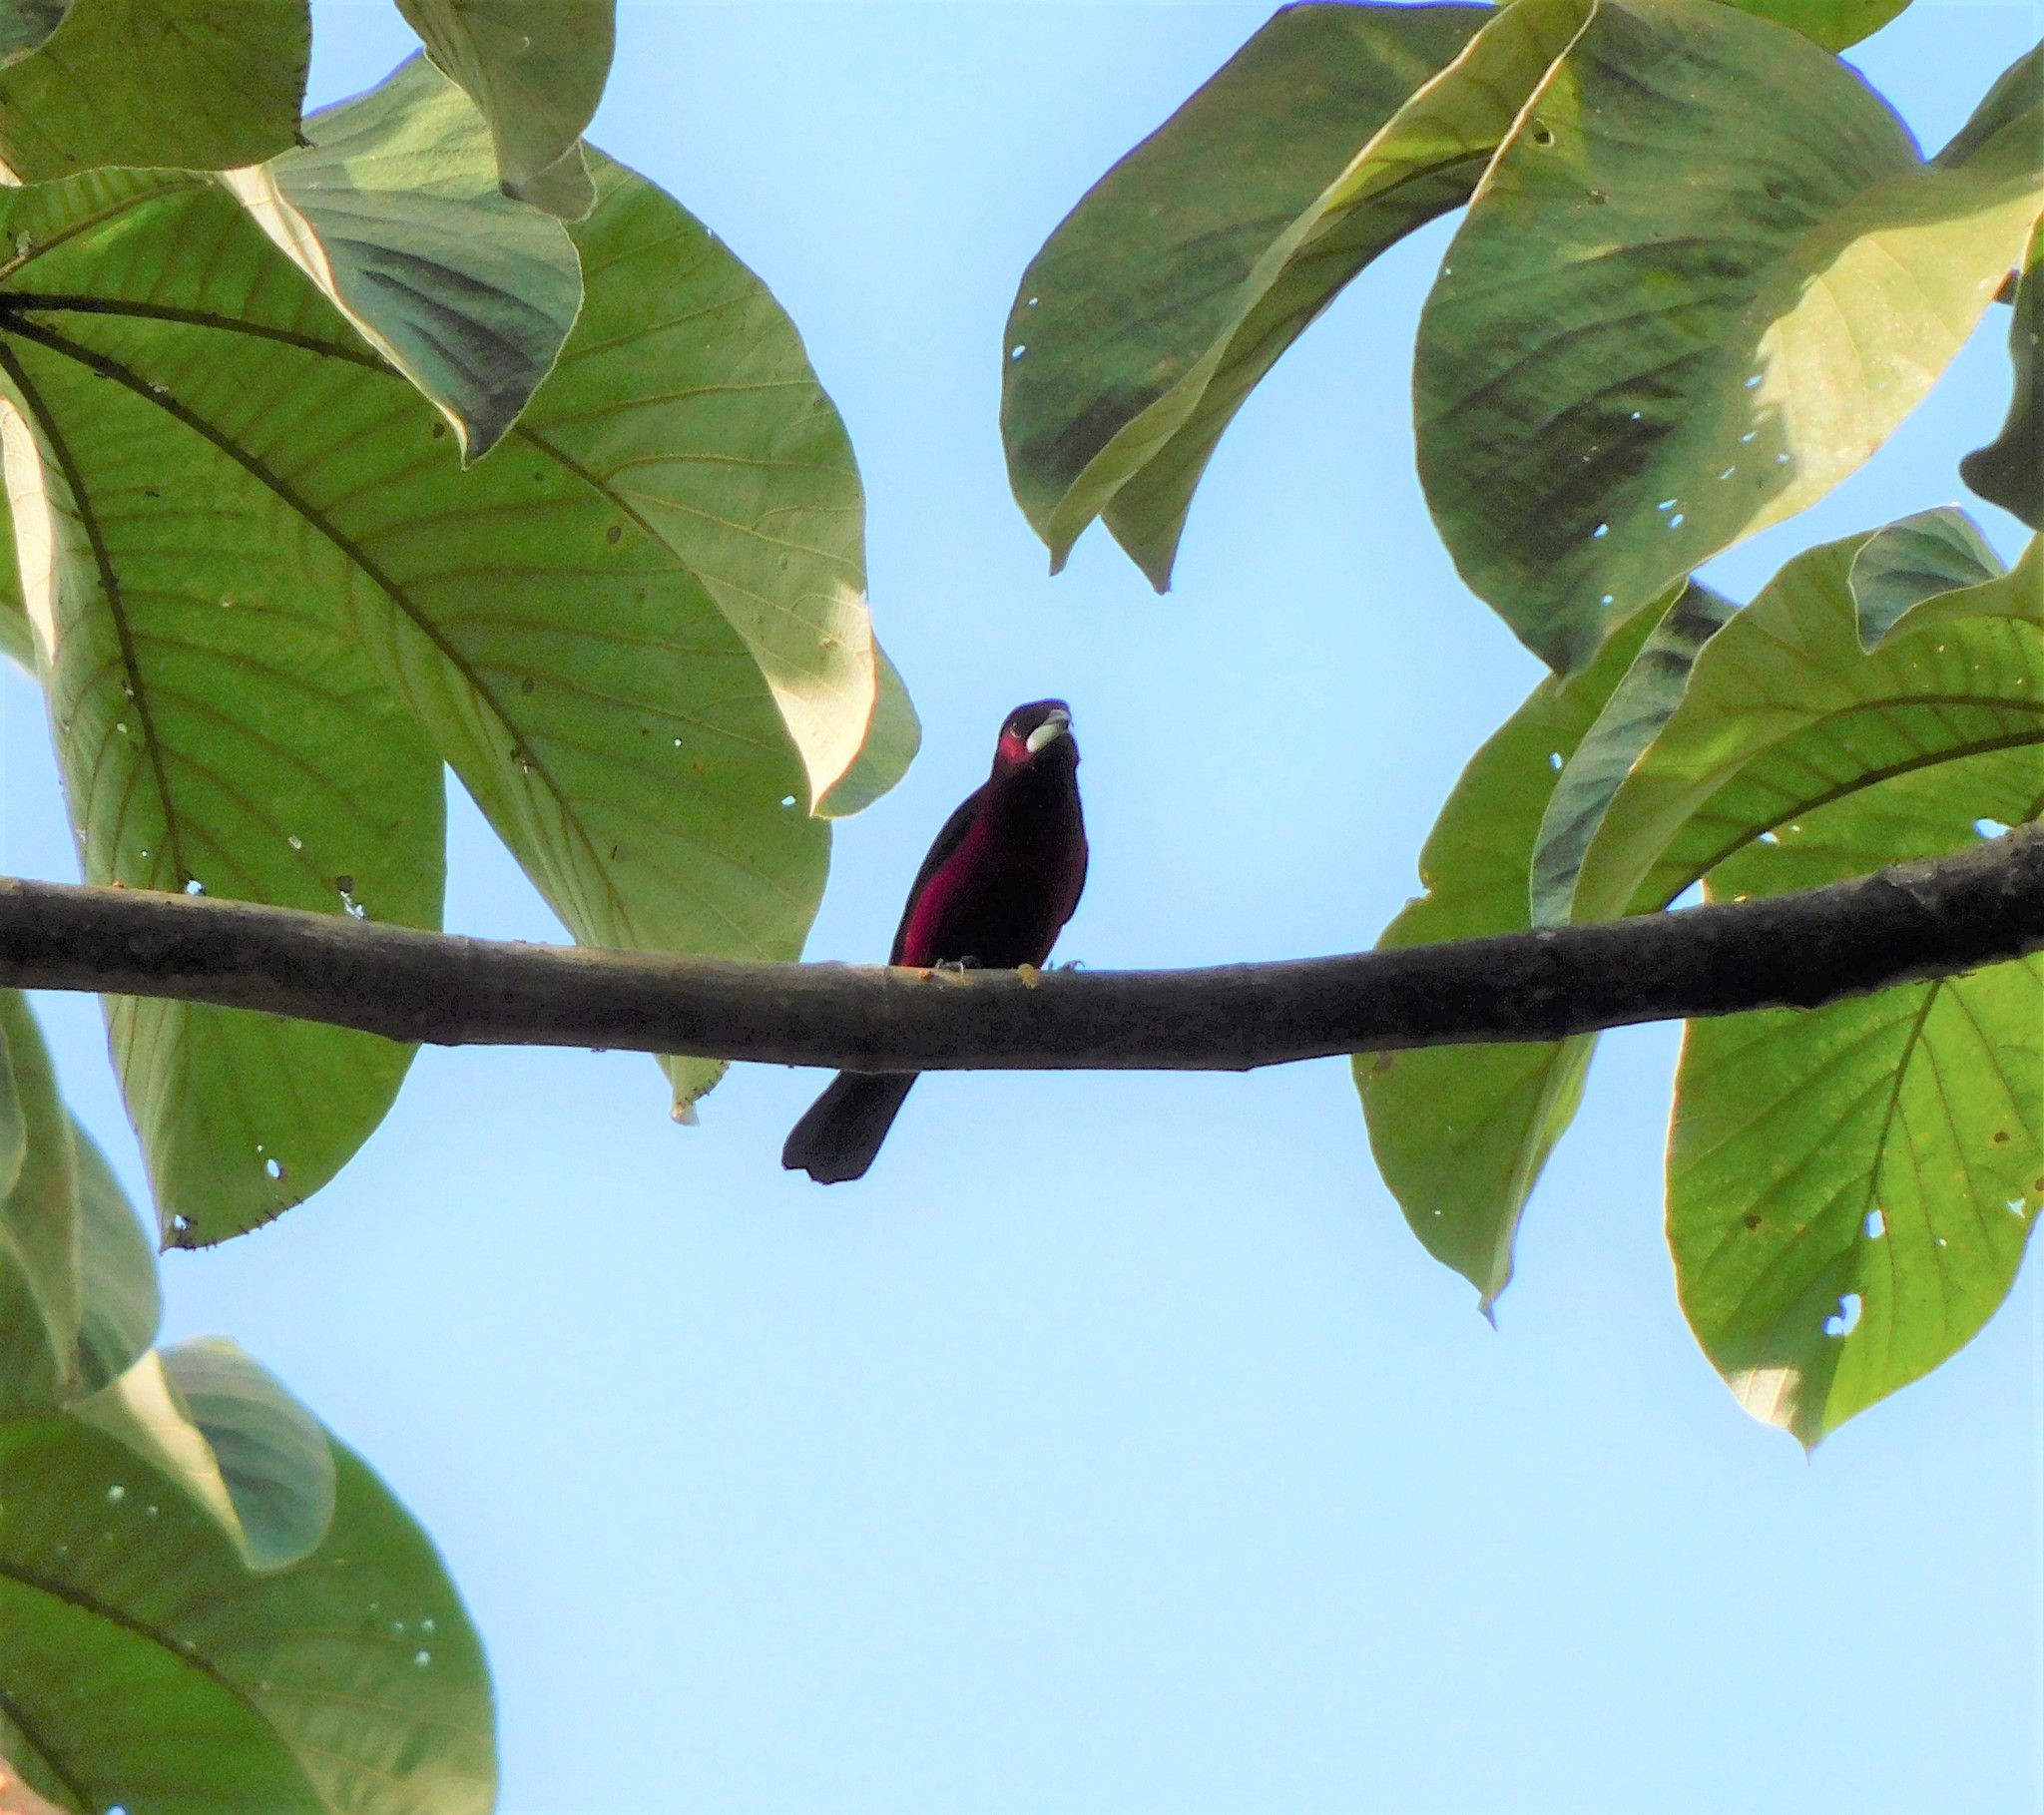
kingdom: Animalia
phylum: Chordata
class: Aves
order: Passeriformes
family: Thraupidae
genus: Ramphocelus
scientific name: Ramphocelus dimidiatus
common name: Crimson-backed tanager
